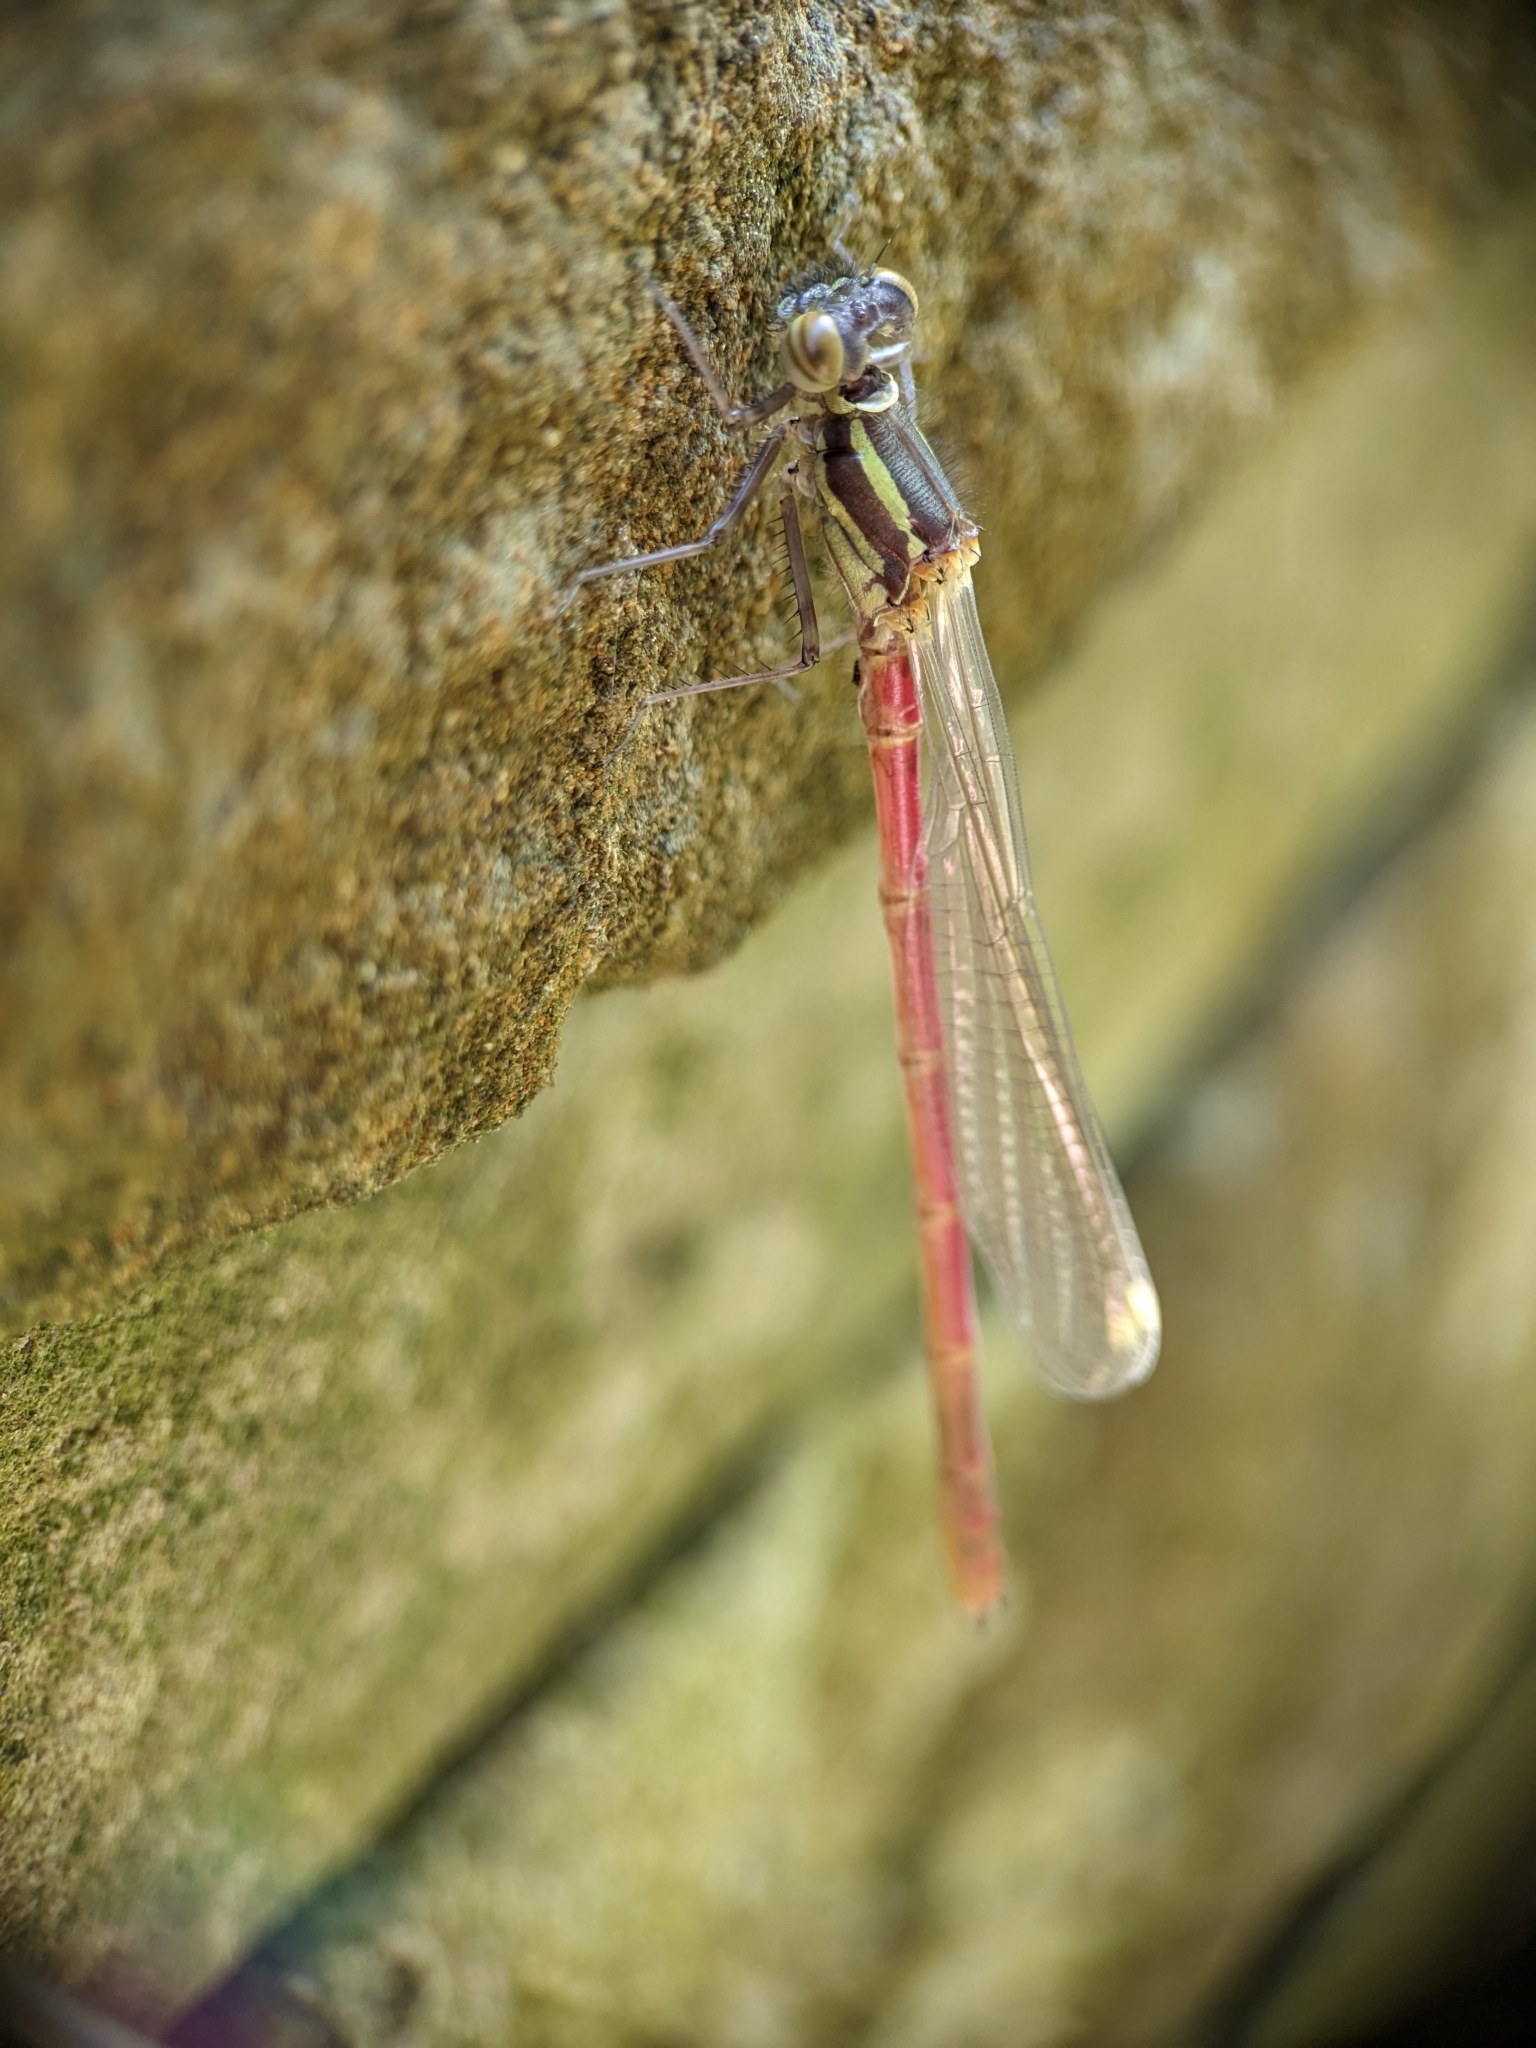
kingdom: Animalia
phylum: Arthropoda
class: Insecta
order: Odonata
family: Coenagrionidae
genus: Pyrrhosoma
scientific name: Pyrrhosoma nymphula
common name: Large red damsel
